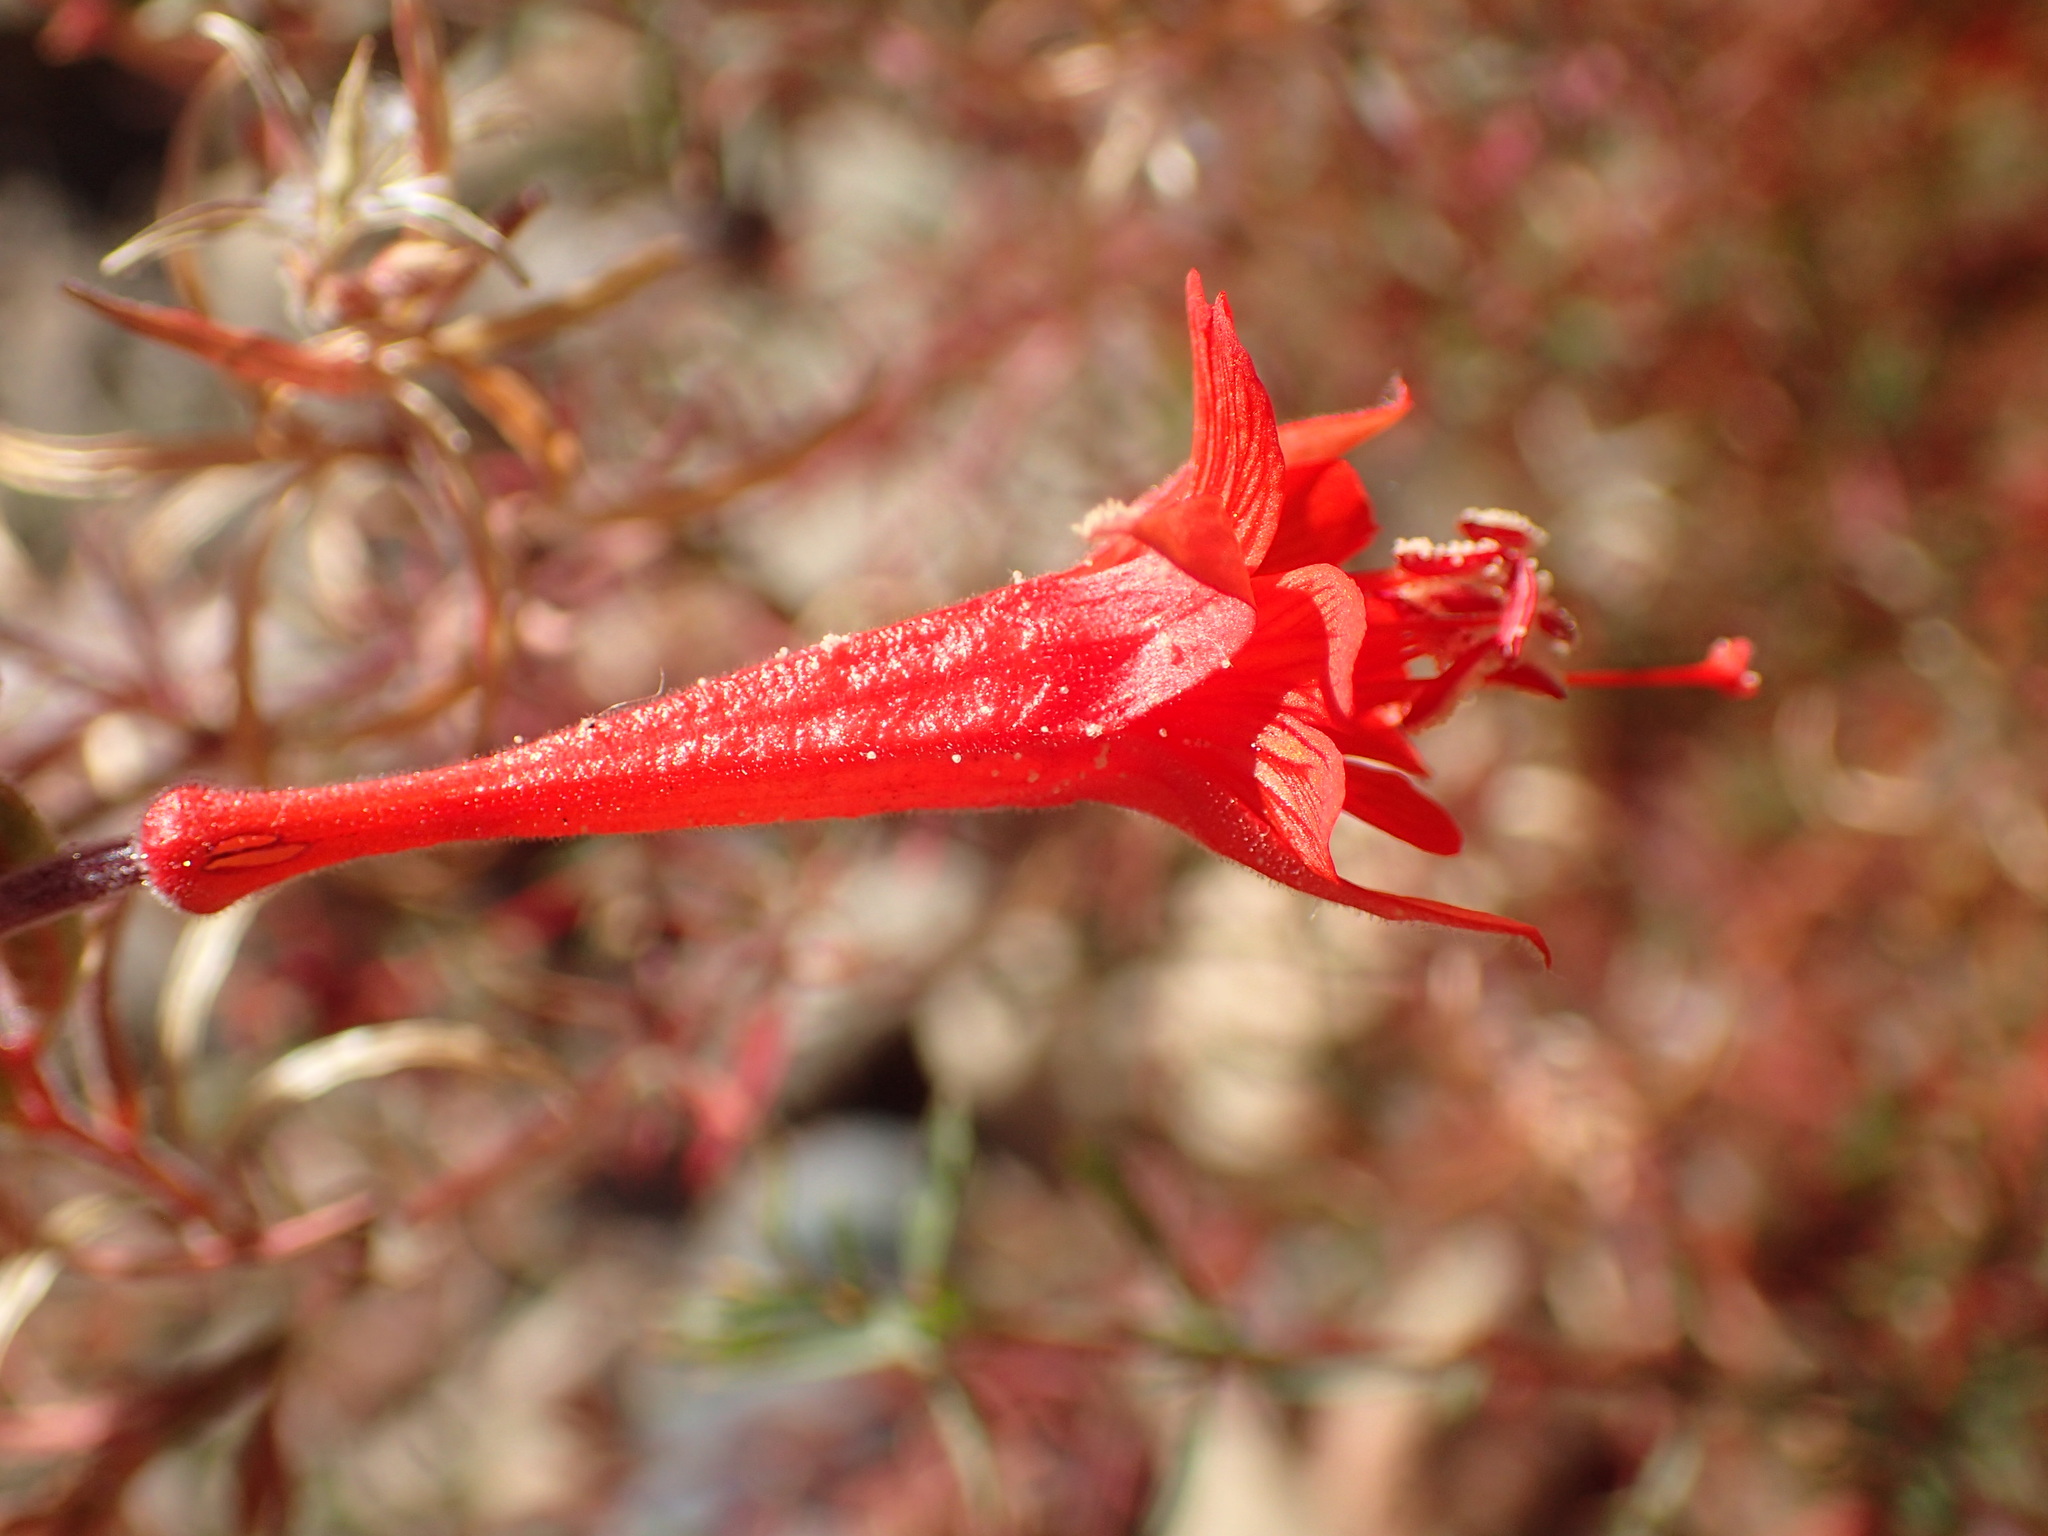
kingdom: Plantae
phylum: Tracheophyta
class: Magnoliopsida
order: Myrtales
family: Onagraceae
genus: Epilobium
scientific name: Epilobium canum
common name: California-fuchsia
